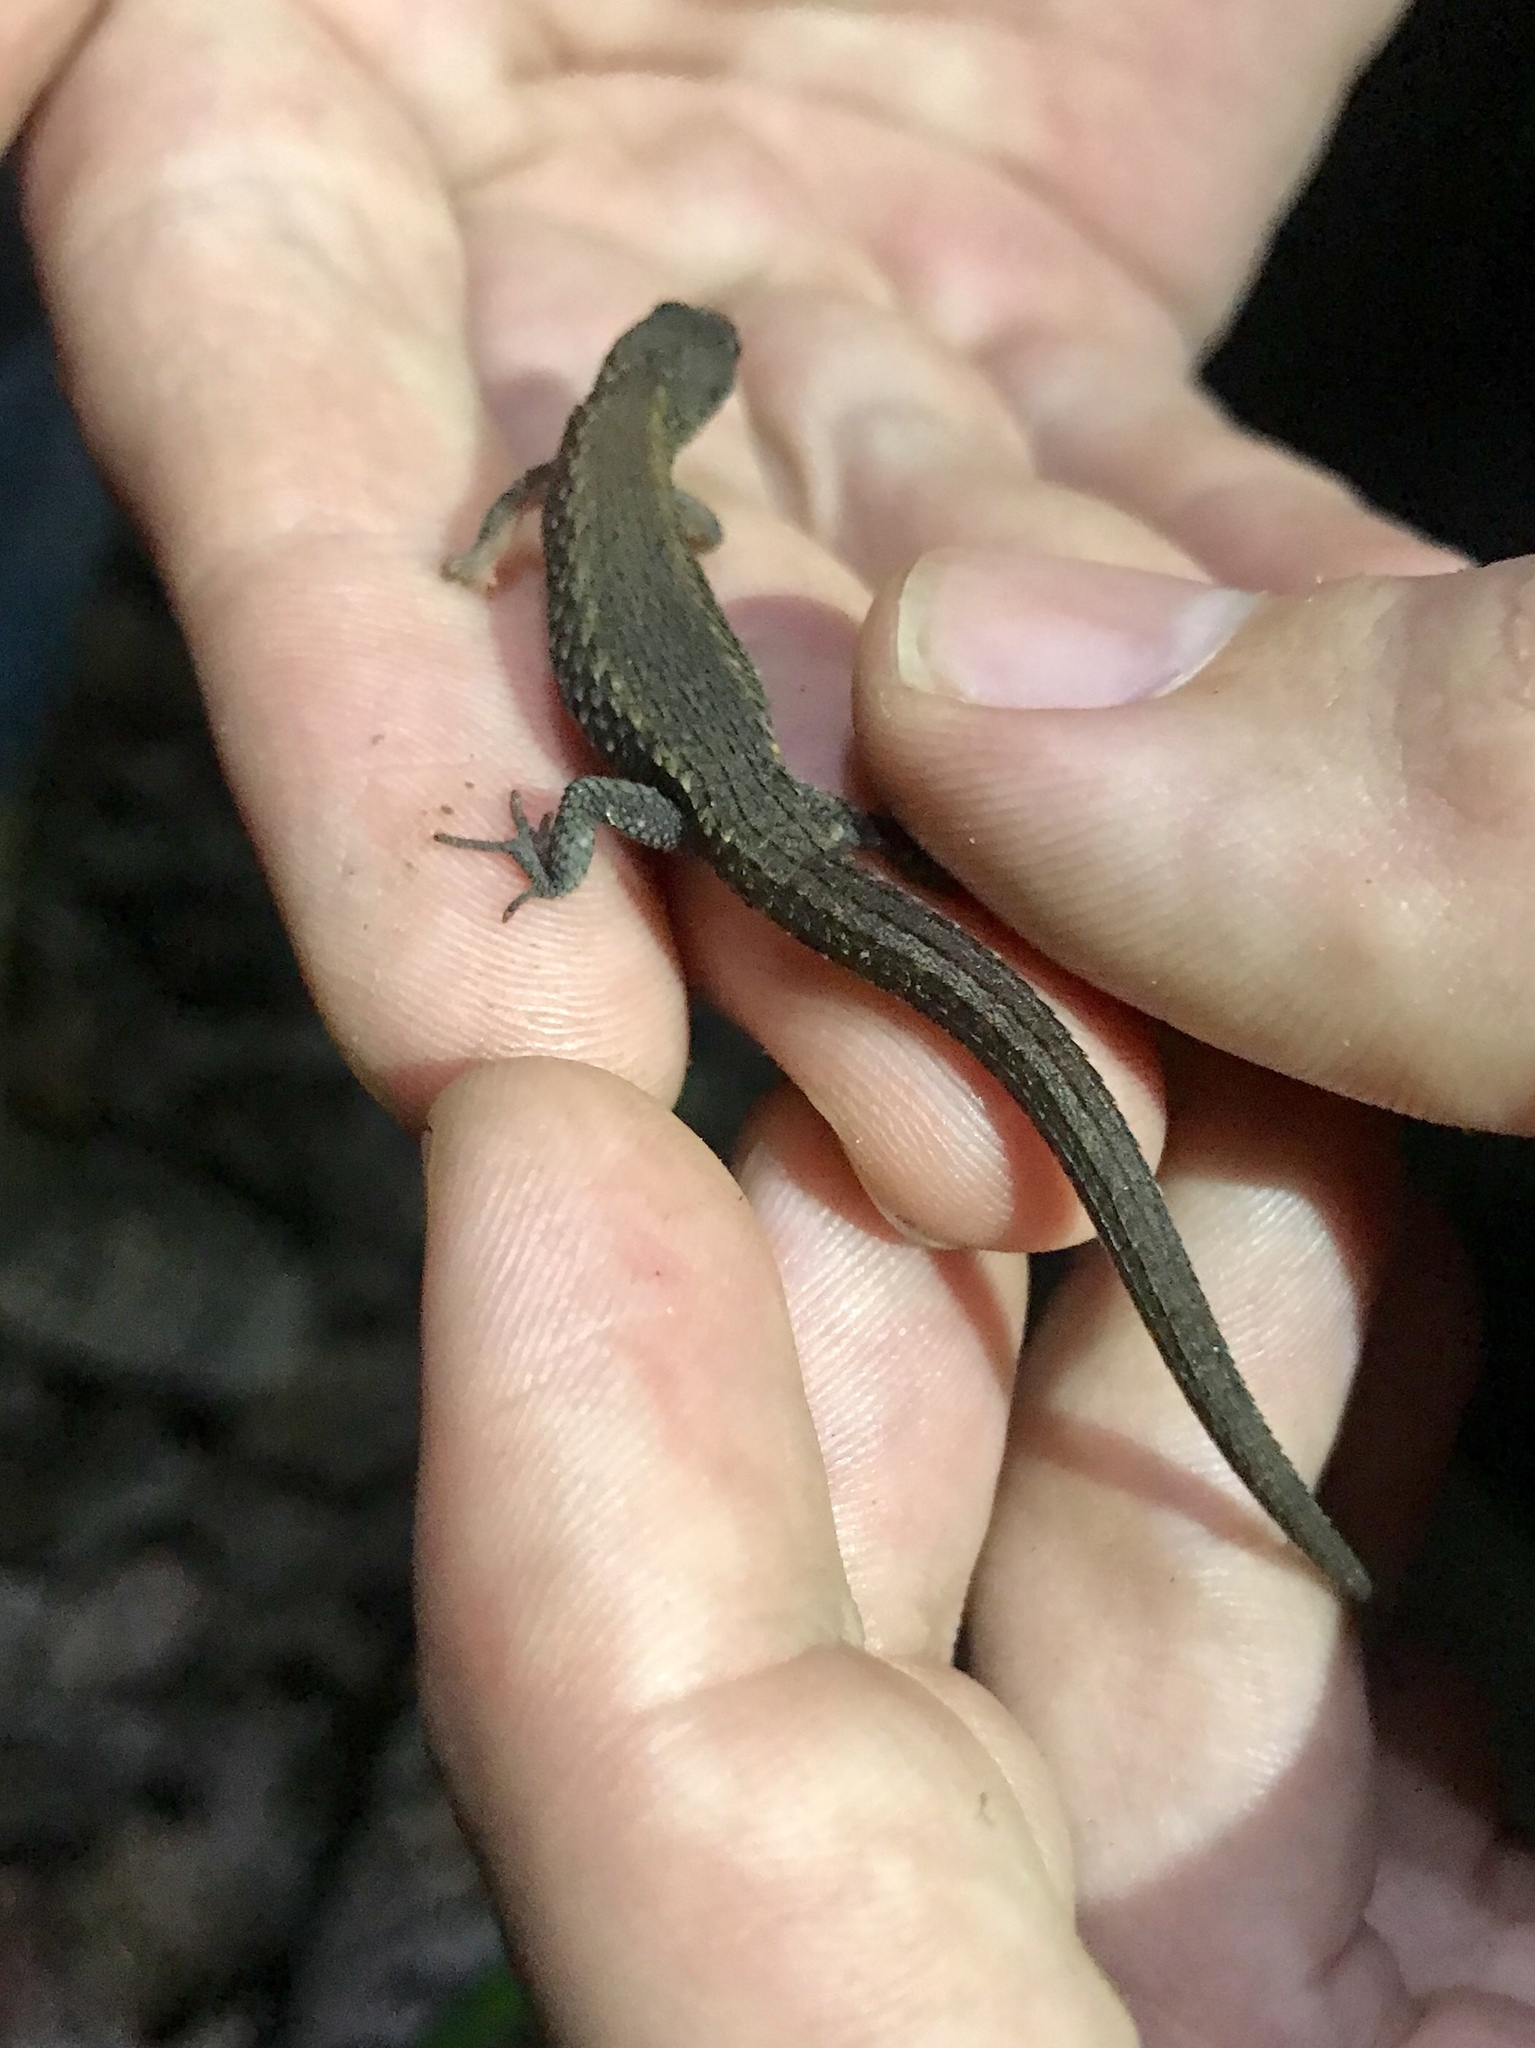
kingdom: Animalia
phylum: Chordata
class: Squamata
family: Gymnophthalmidae
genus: Loxopholis
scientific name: Loxopholis southi
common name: Northern spectacled lizard
